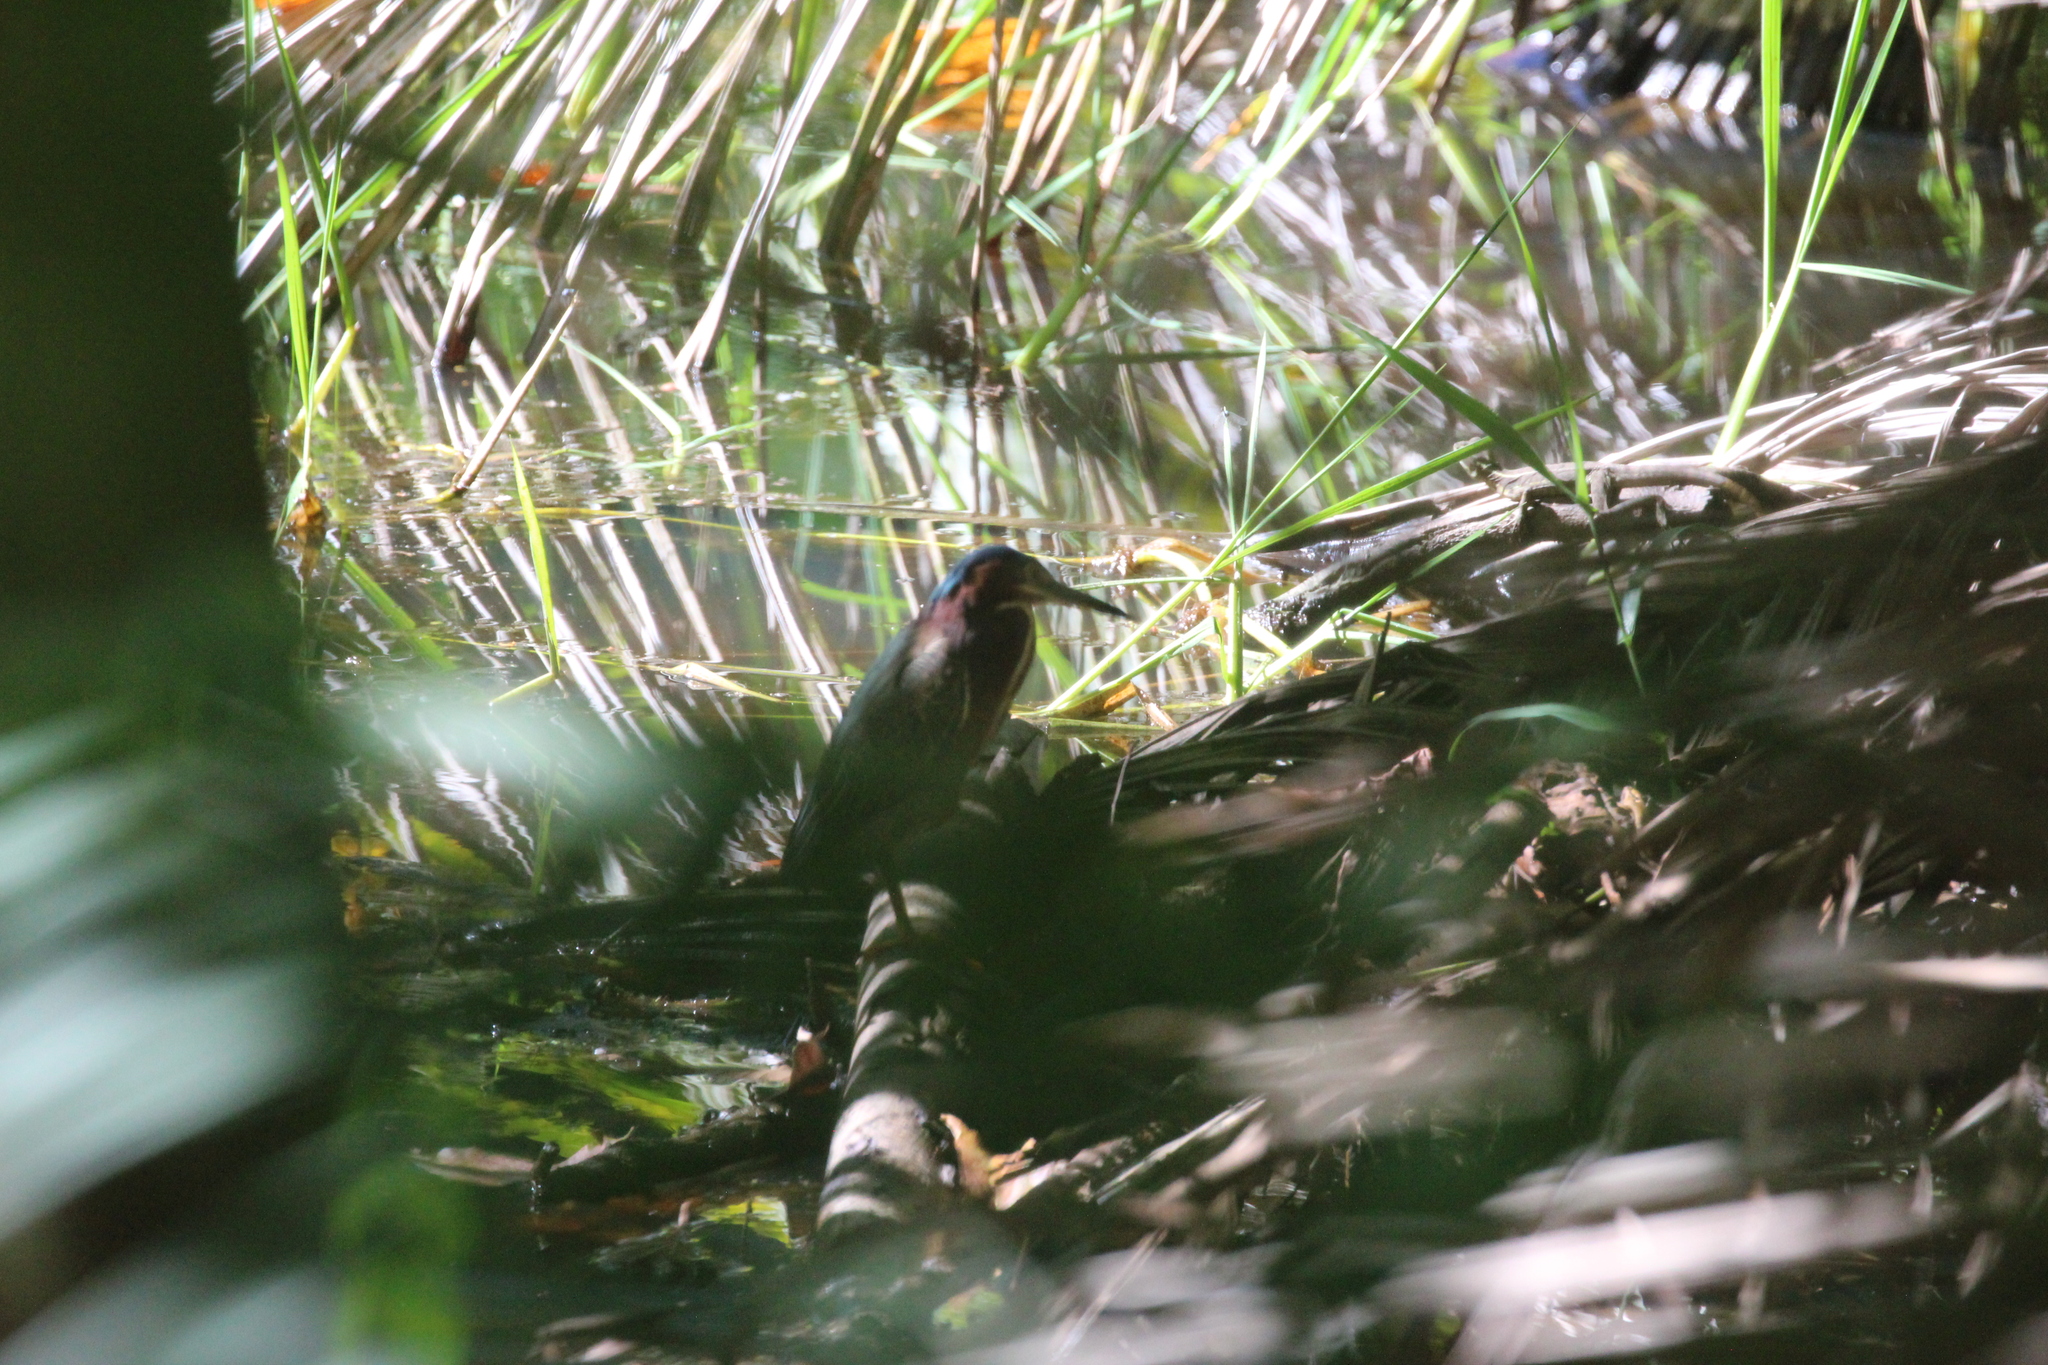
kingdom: Animalia
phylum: Chordata
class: Aves
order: Pelecaniformes
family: Ardeidae
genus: Butorides
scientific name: Butorides virescens
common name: Green heron
